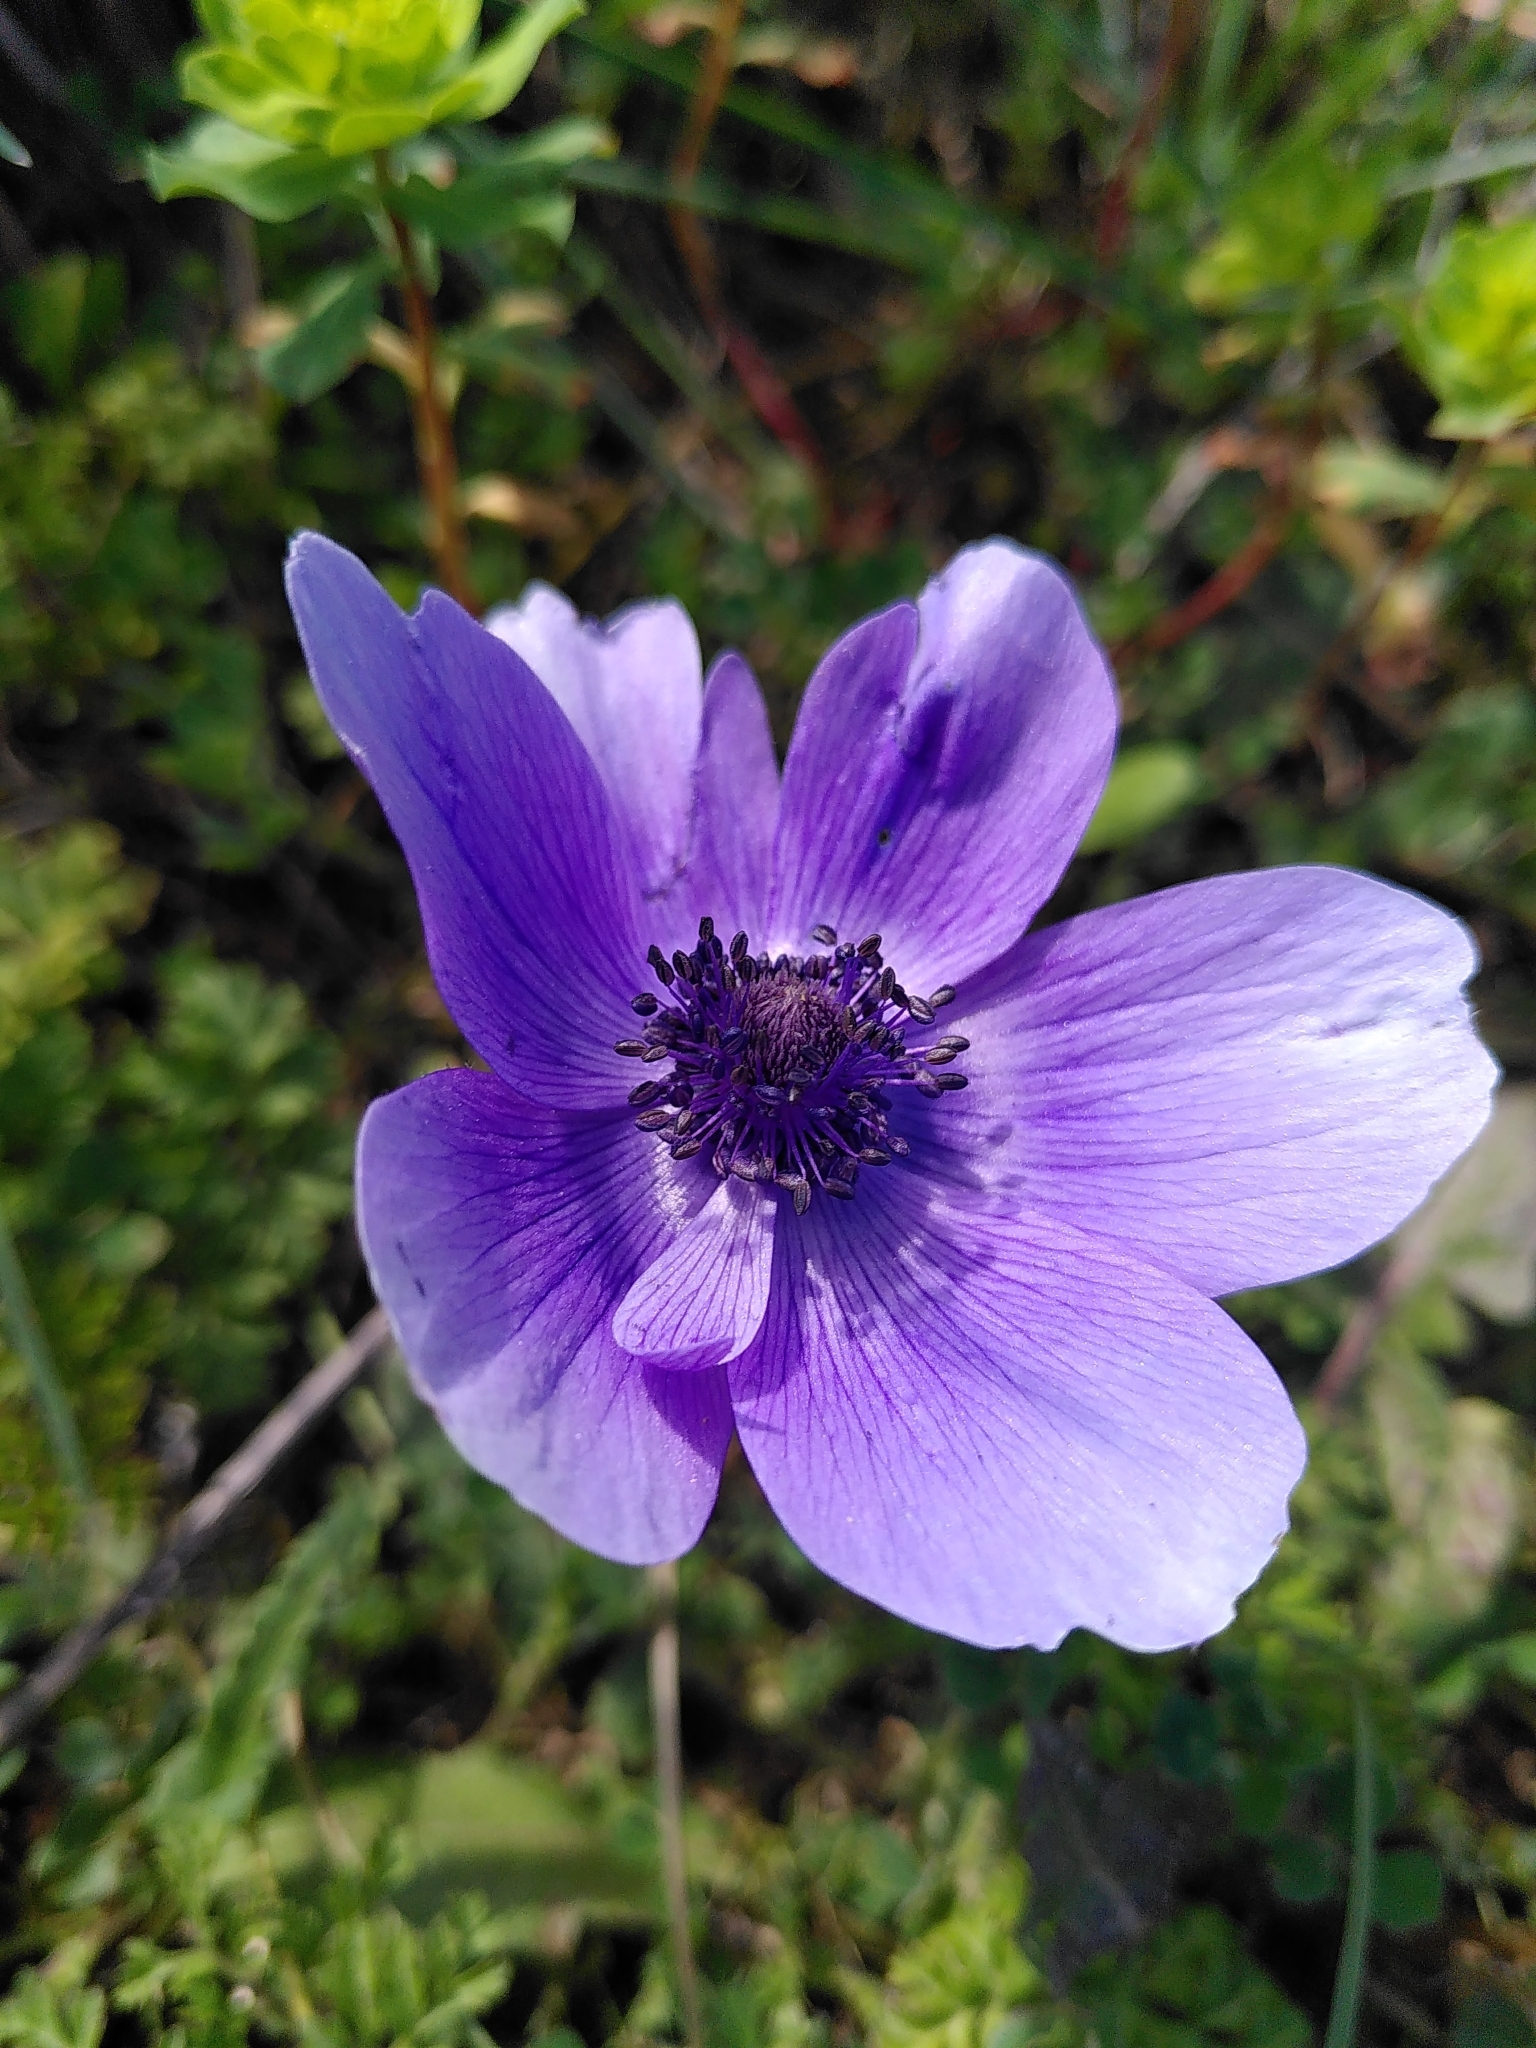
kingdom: Plantae
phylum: Tracheophyta
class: Magnoliopsida
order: Ranunculales
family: Ranunculaceae
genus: Anemone
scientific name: Anemone coronaria
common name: Poppy anemone
